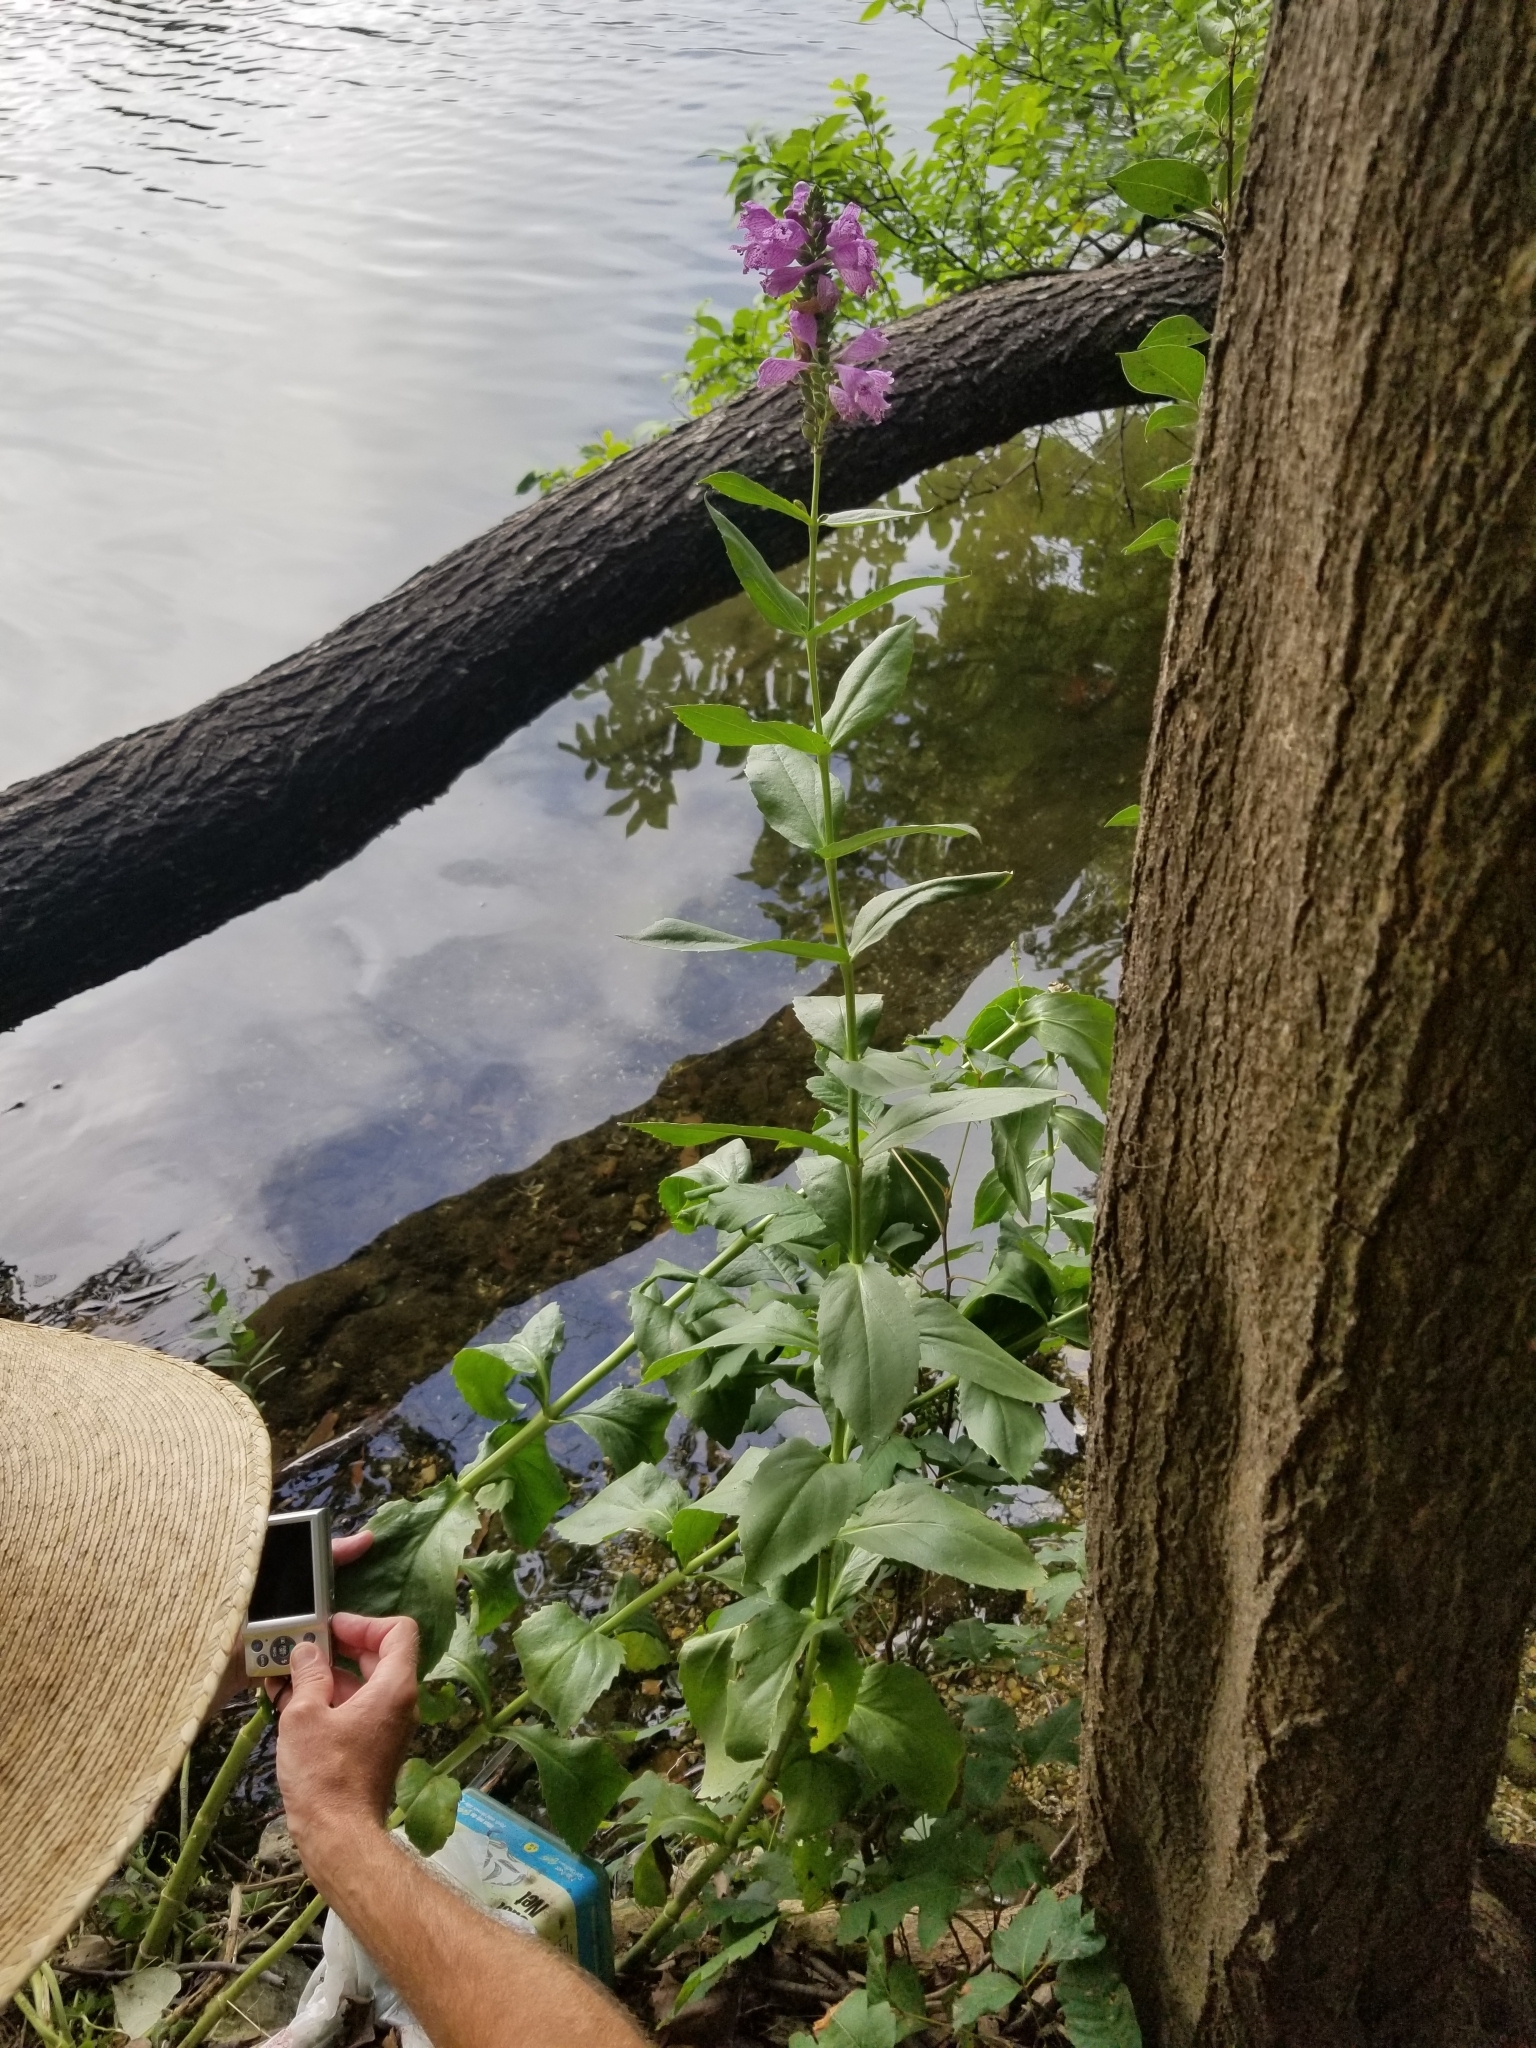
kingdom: Plantae
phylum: Tracheophyta
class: Magnoliopsida
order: Lamiales
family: Lamiaceae
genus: Physostegia
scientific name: Physostegia correllii
